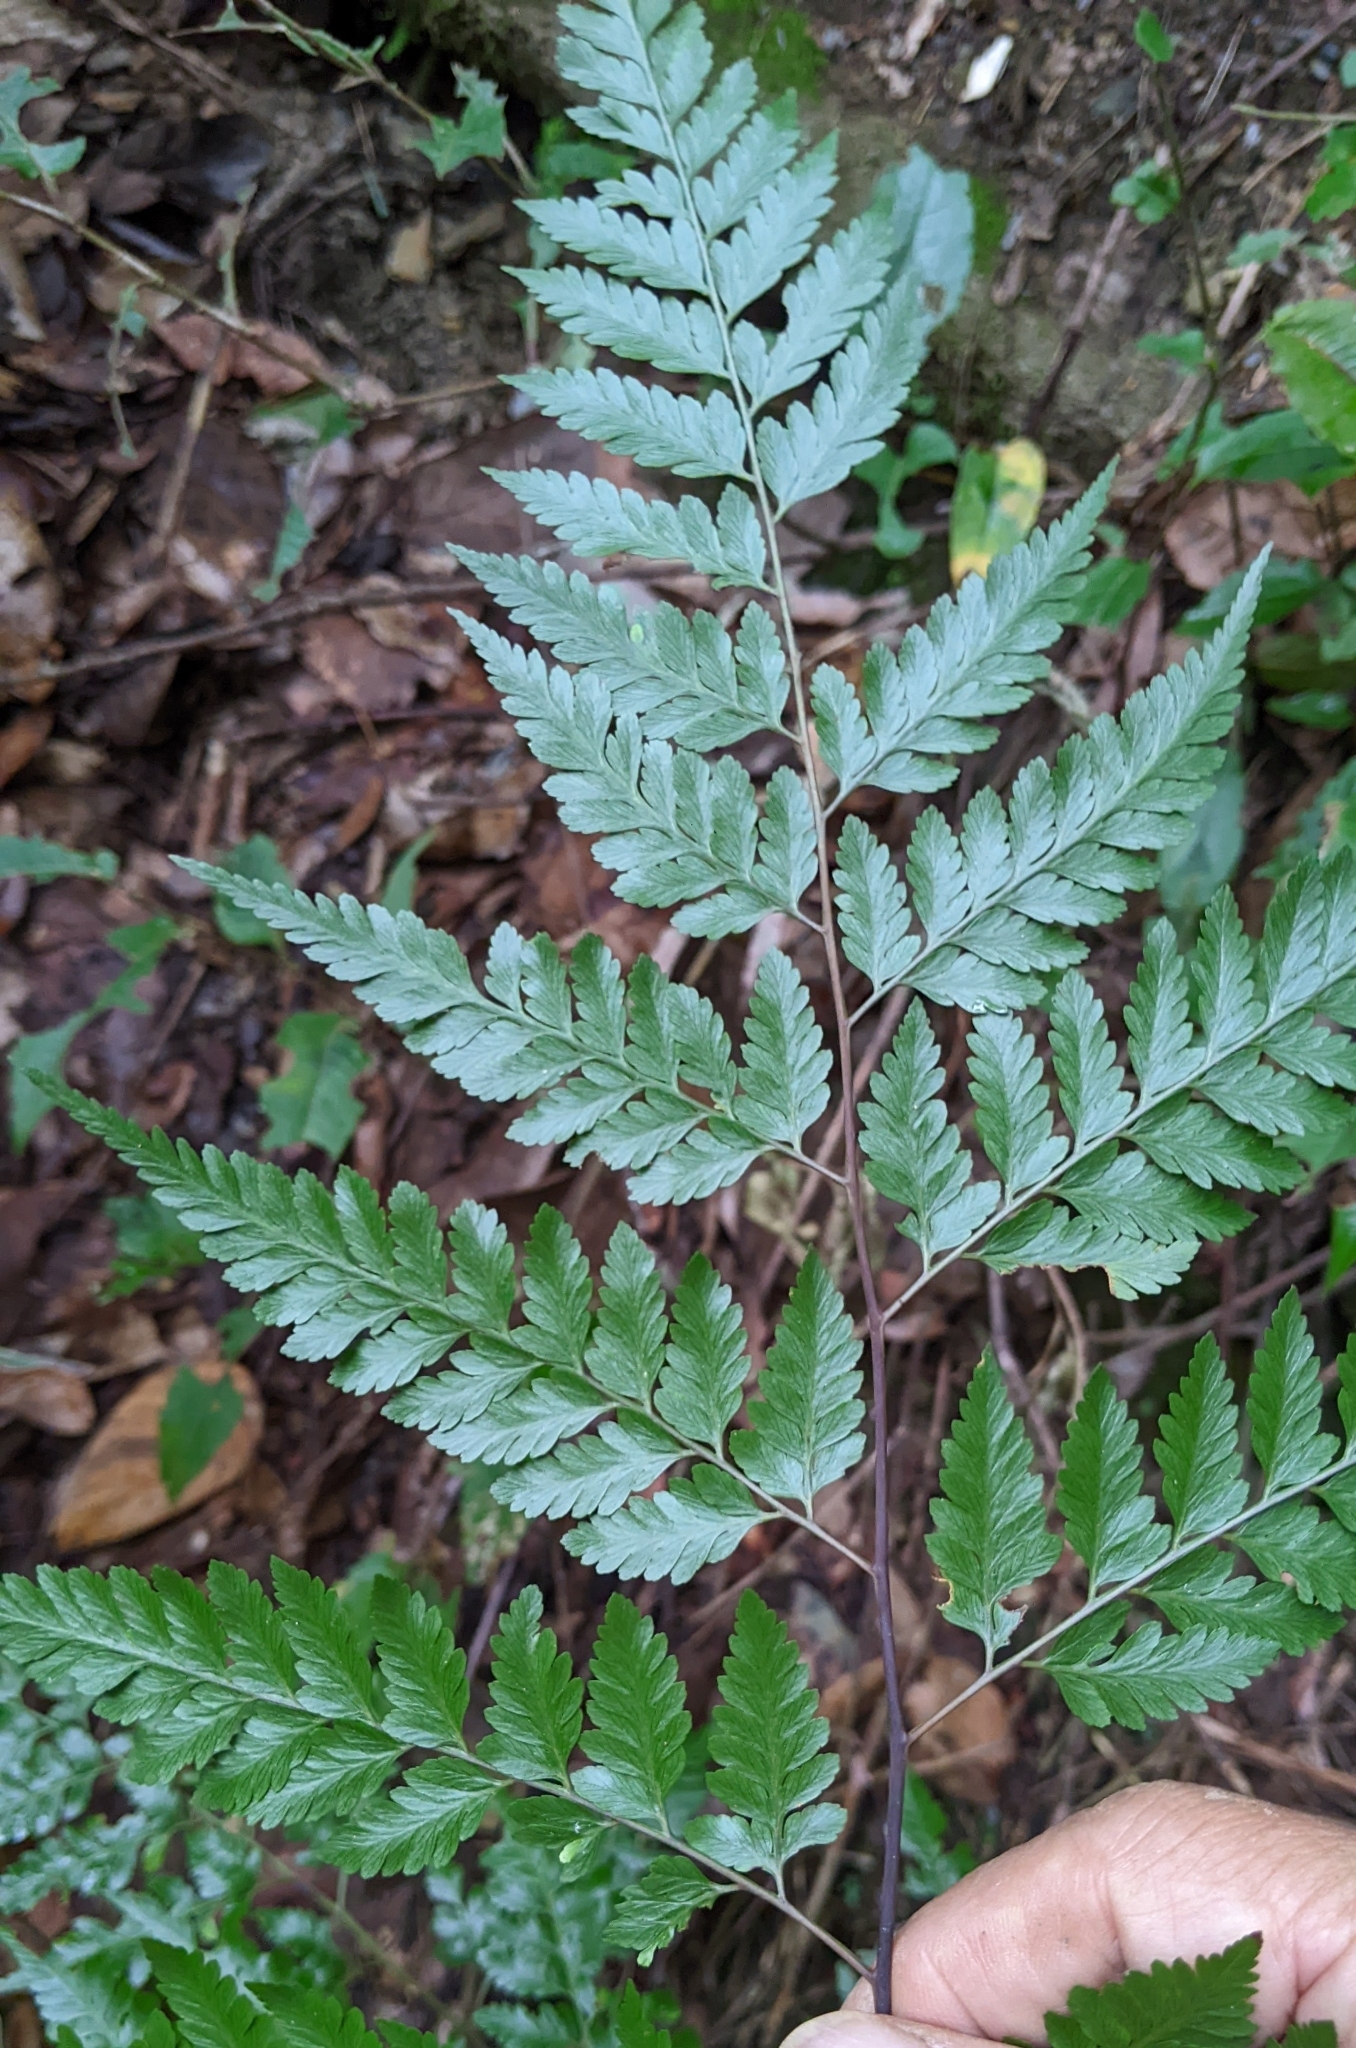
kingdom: Plantae
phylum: Tracheophyta
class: Polypodiopsida
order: Polypodiales
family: Davalliaceae
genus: Davallia
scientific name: Davallia divaricata
